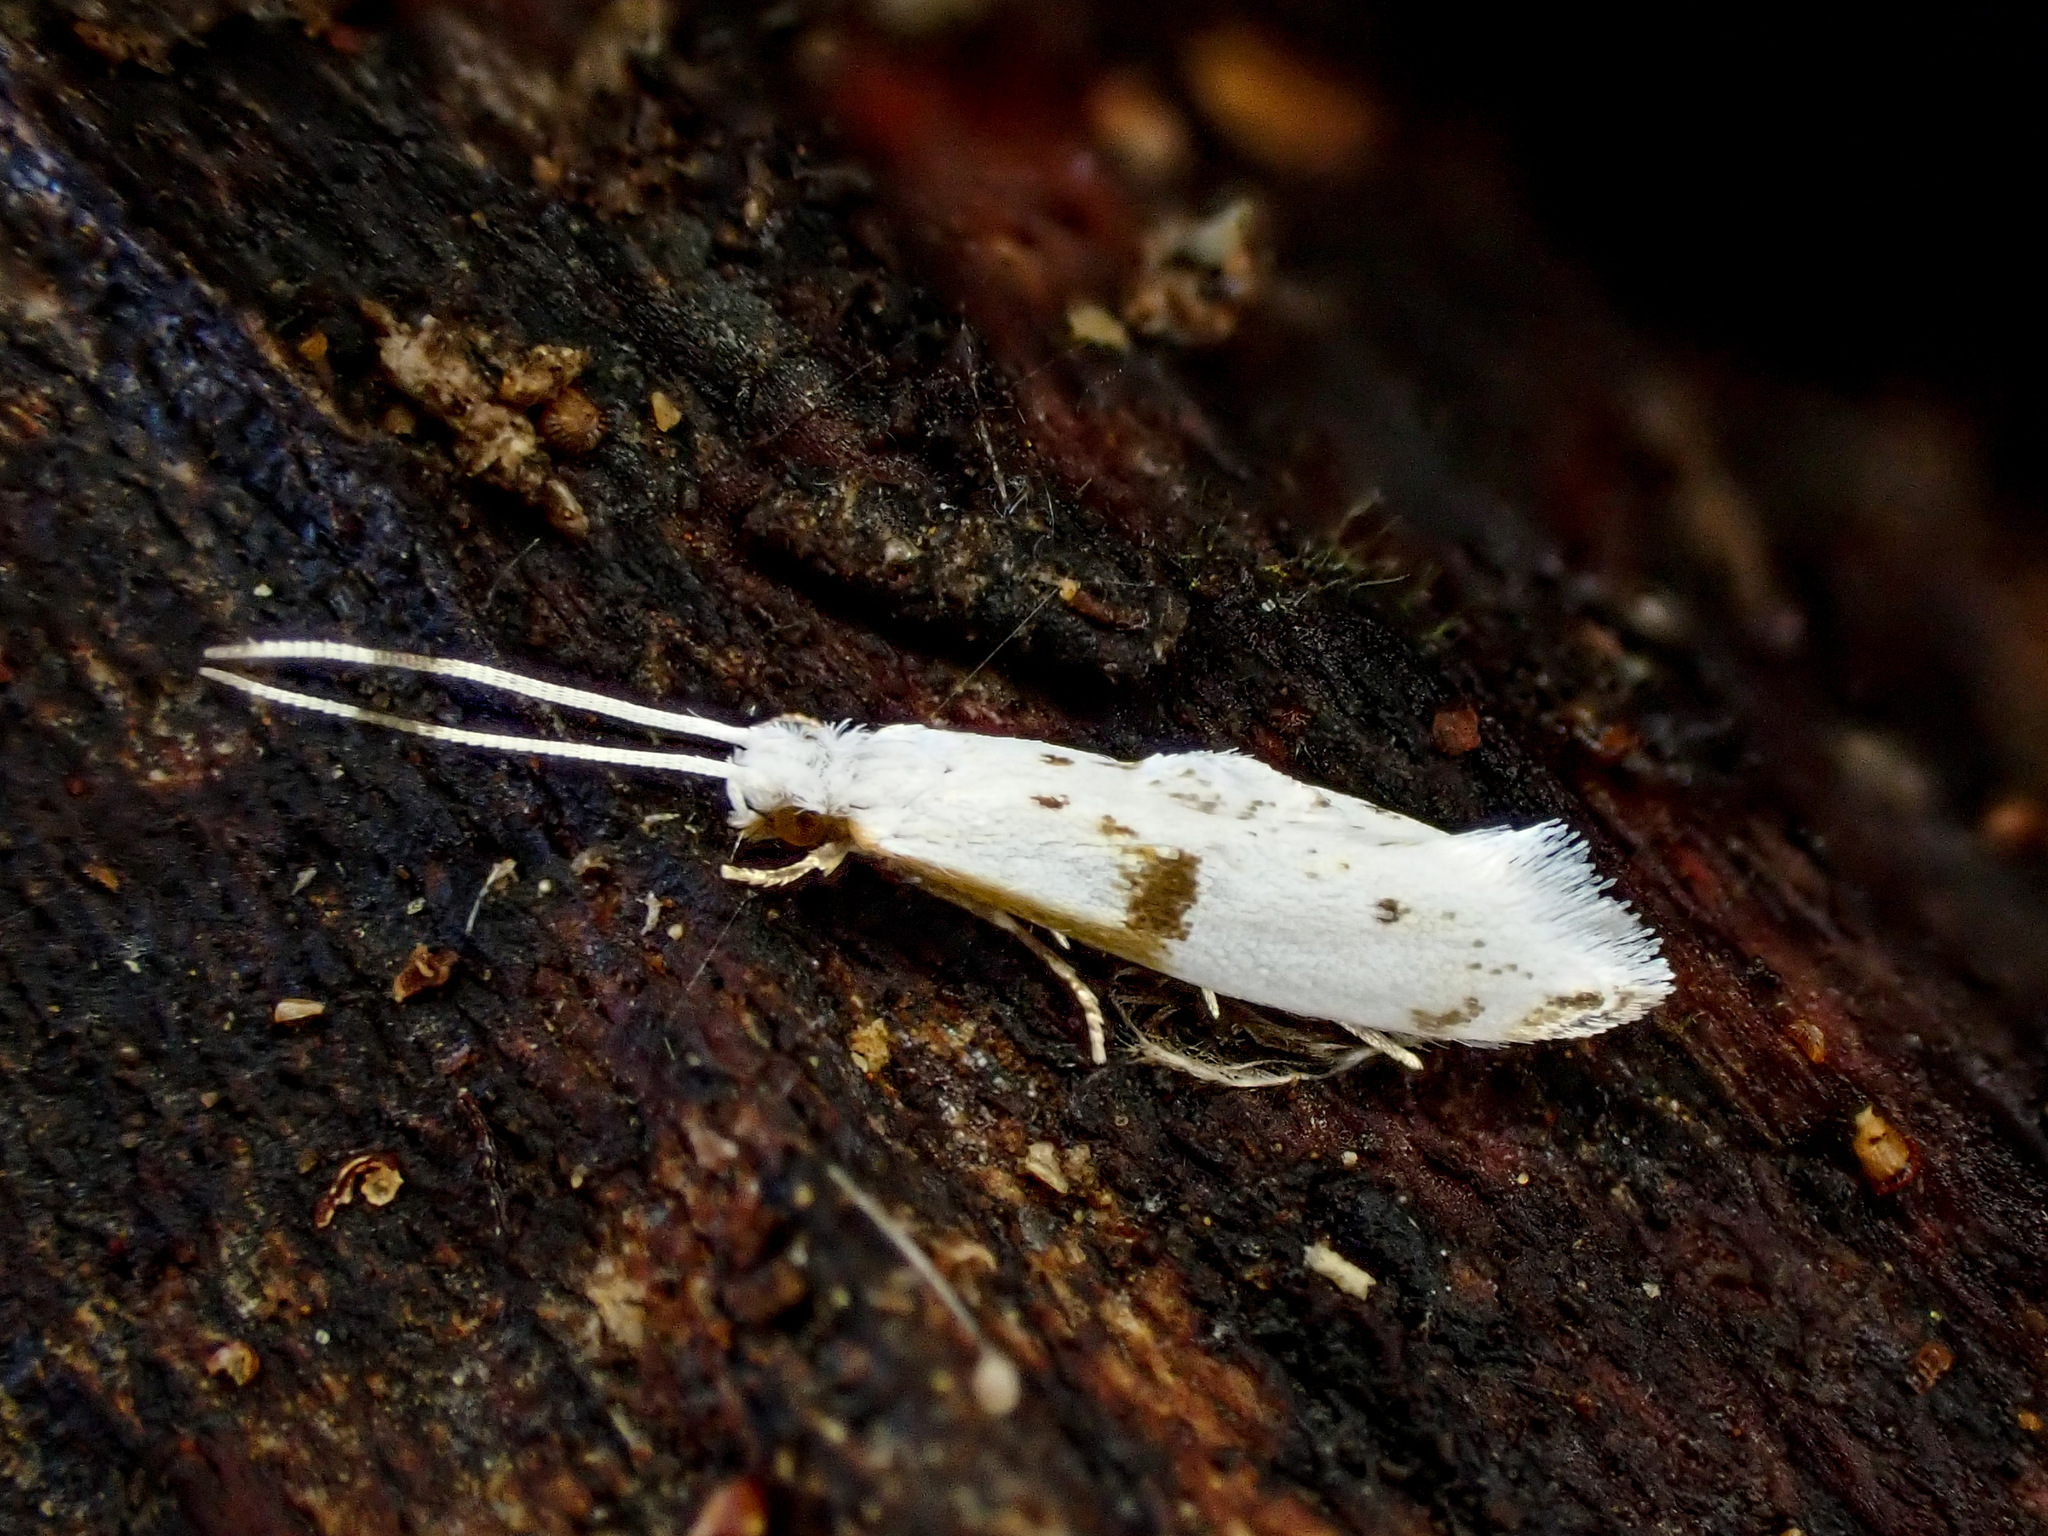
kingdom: Animalia
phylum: Arthropoda
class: Insecta
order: Lepidoptera
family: Tineidae
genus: Sagephora
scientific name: Sagephora felix
